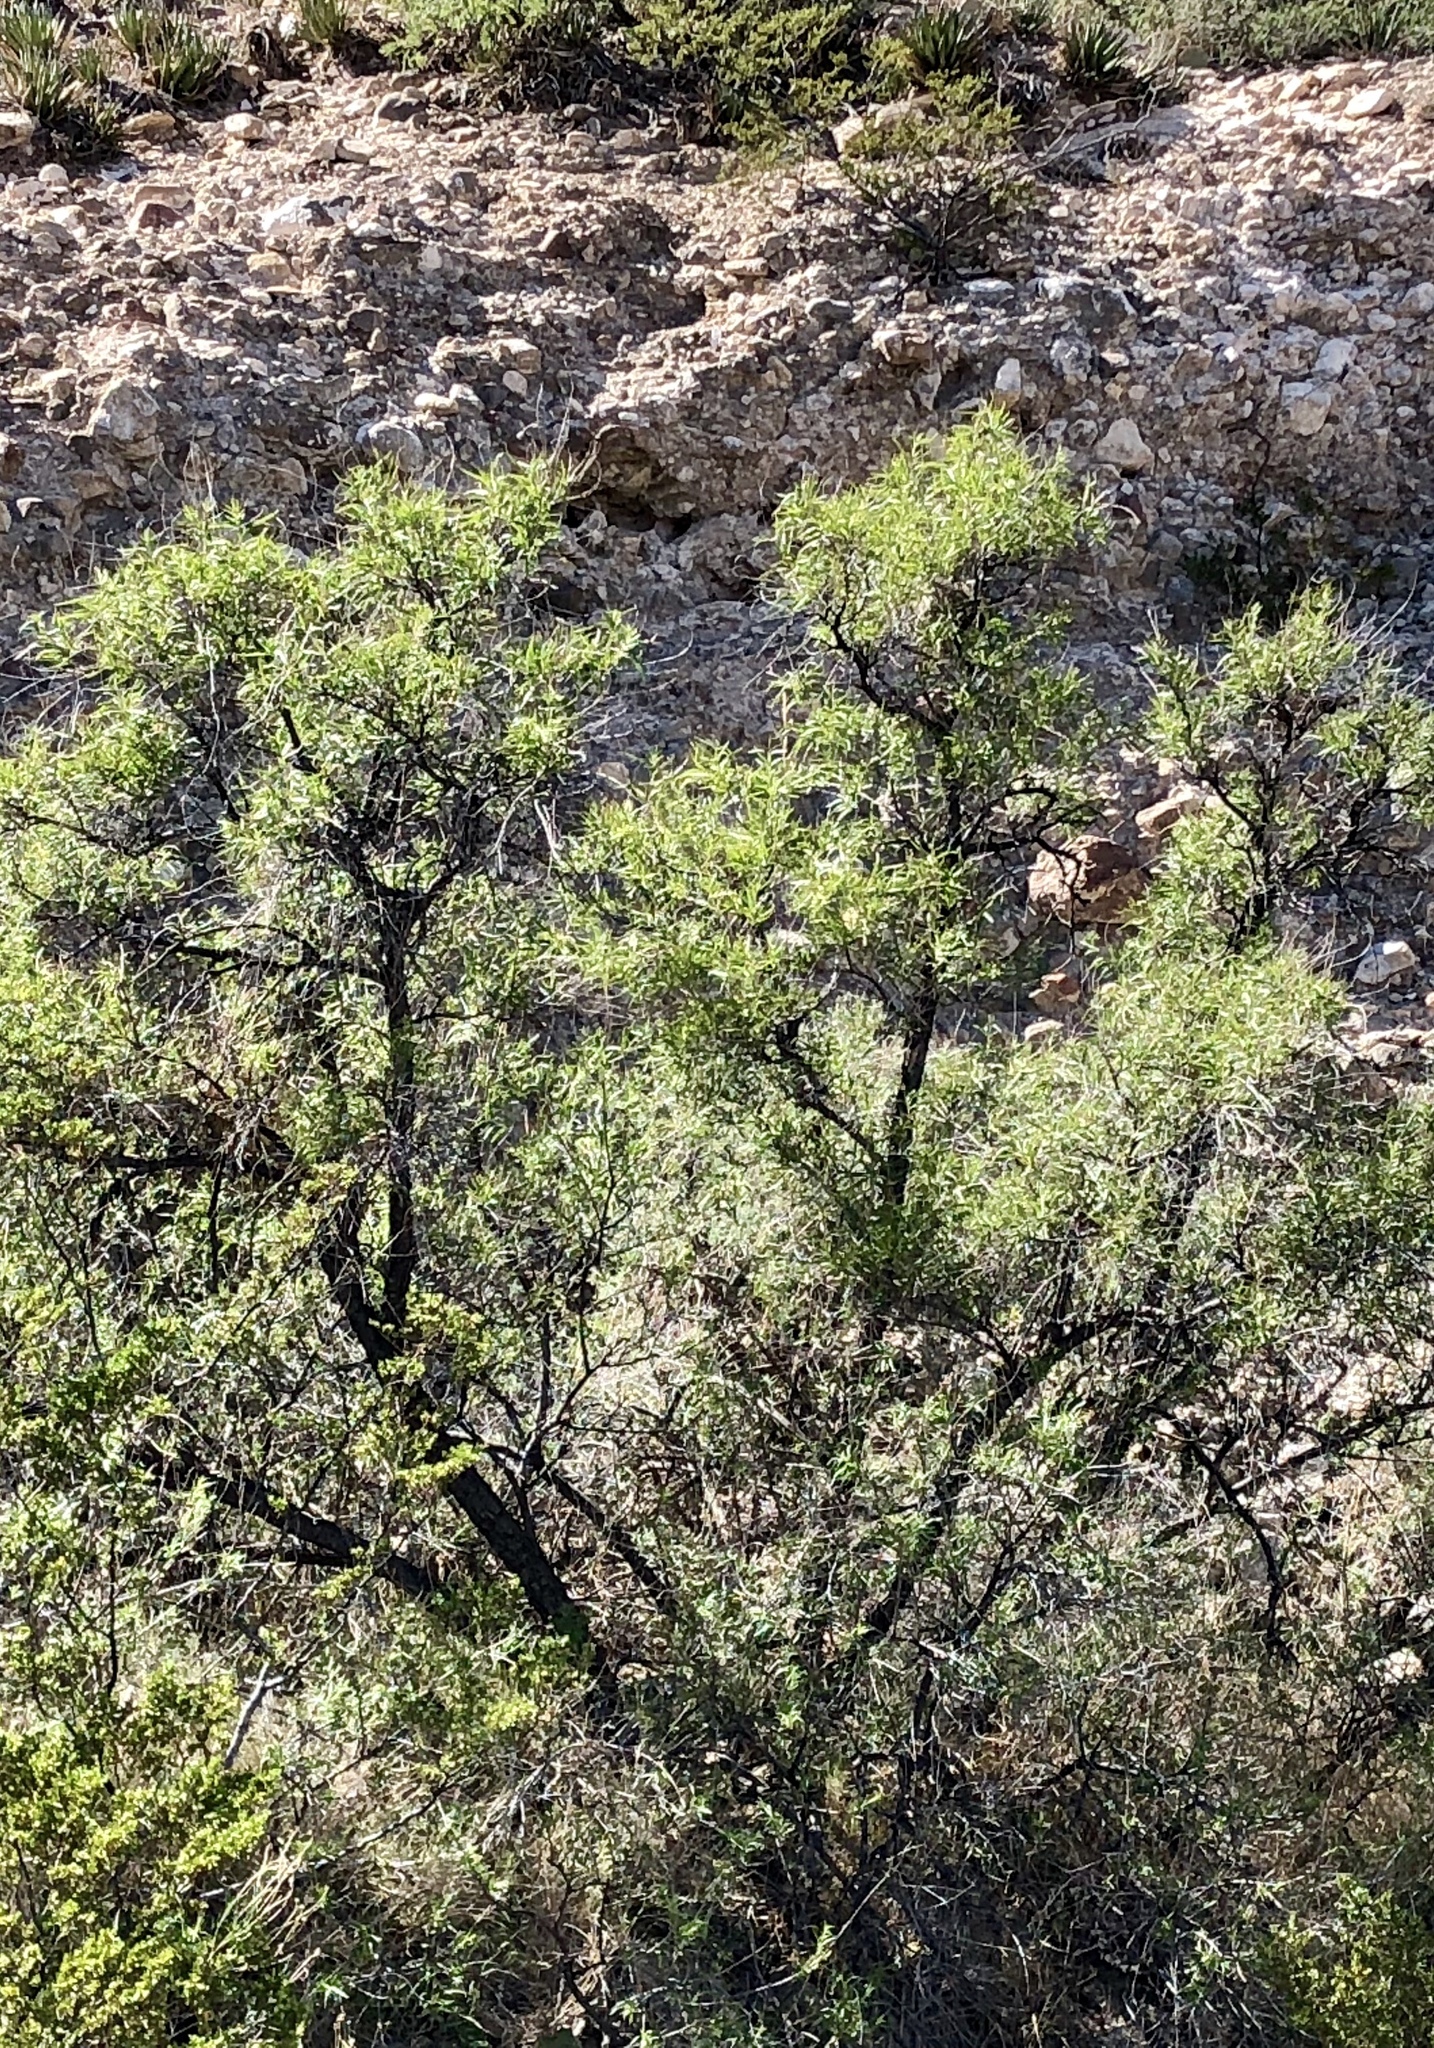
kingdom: Plantae
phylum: Tracheophyta
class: Magnoliopsida
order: Lamiales
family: Bignoniaceae
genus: Chilopsis
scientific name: Chilopsis linearis
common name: Desert-willow
